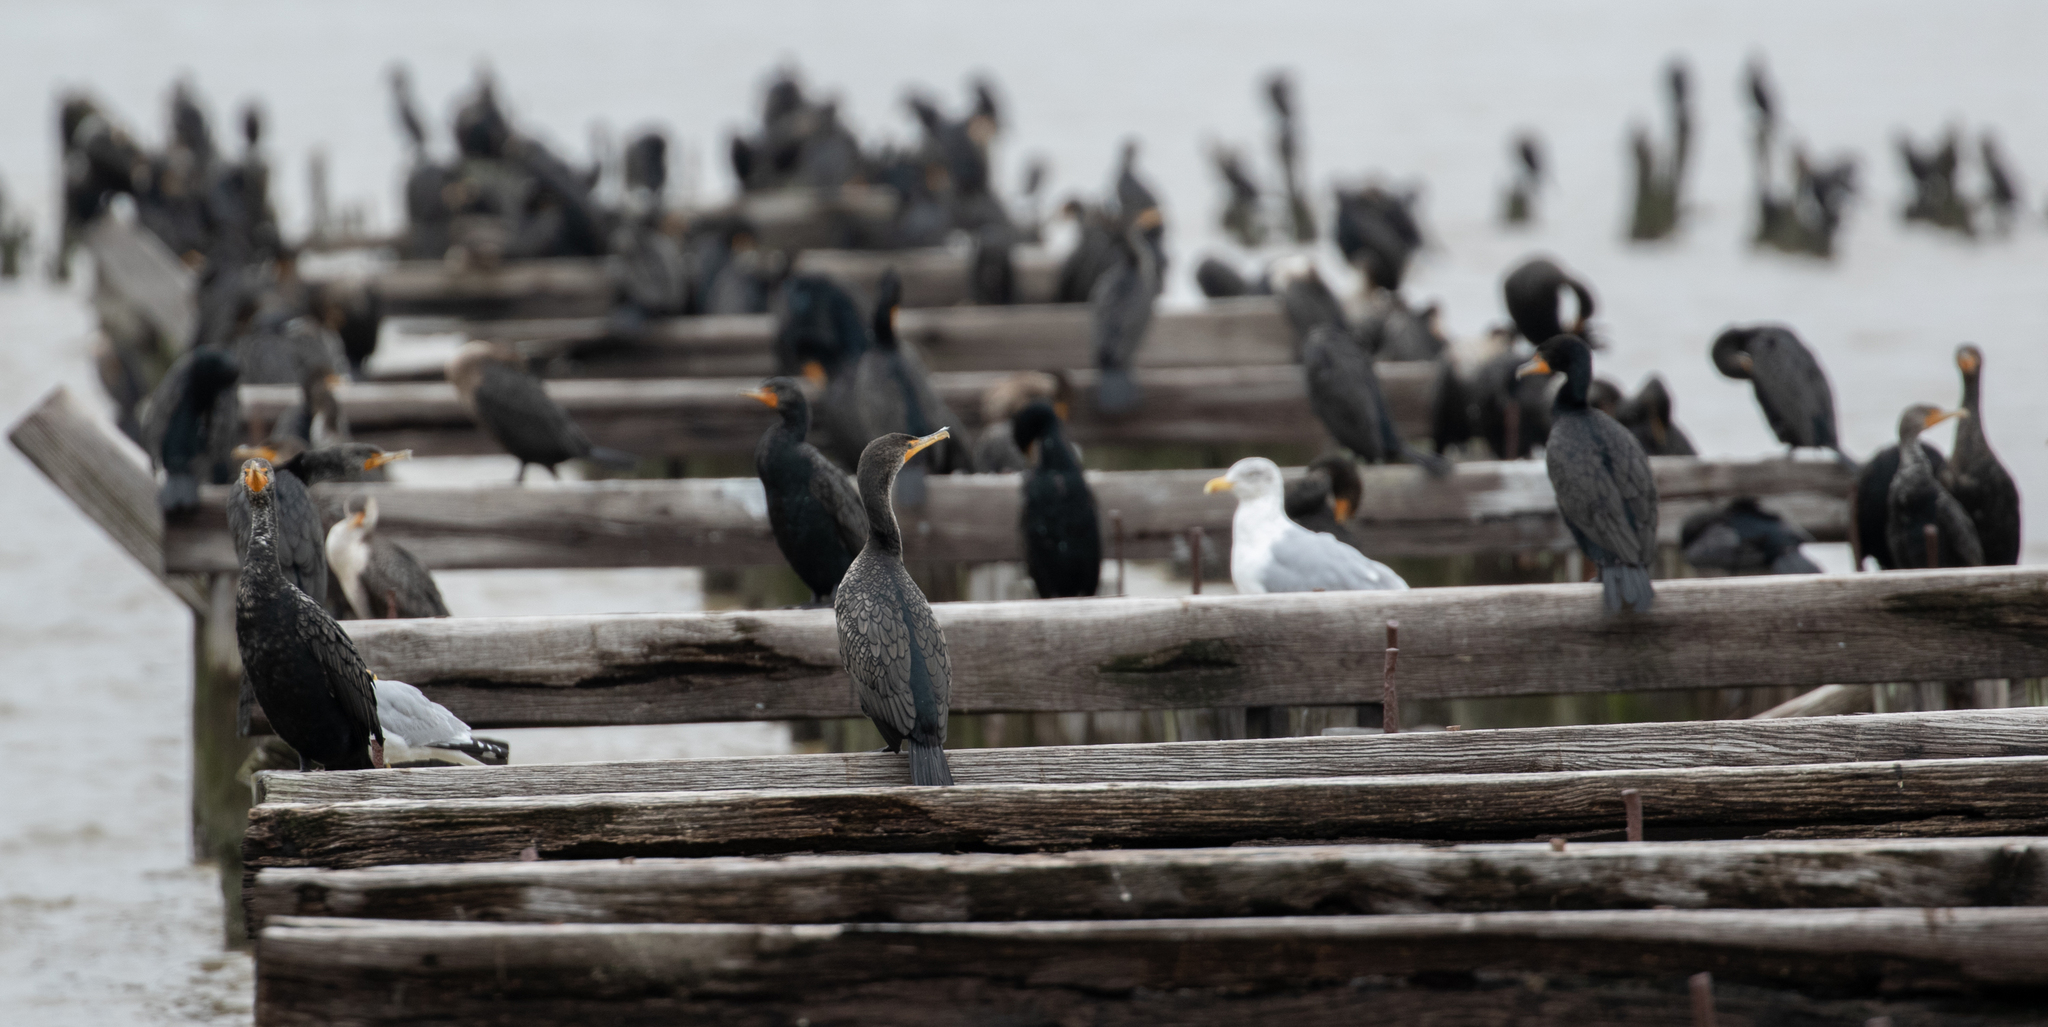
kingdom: Animalia
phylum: Chordata
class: Aves
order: Suliformes
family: Phalacrocoracidae
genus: Phalacrocorax
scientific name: Phalacrocorax auritus
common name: Double-crested cormorant
